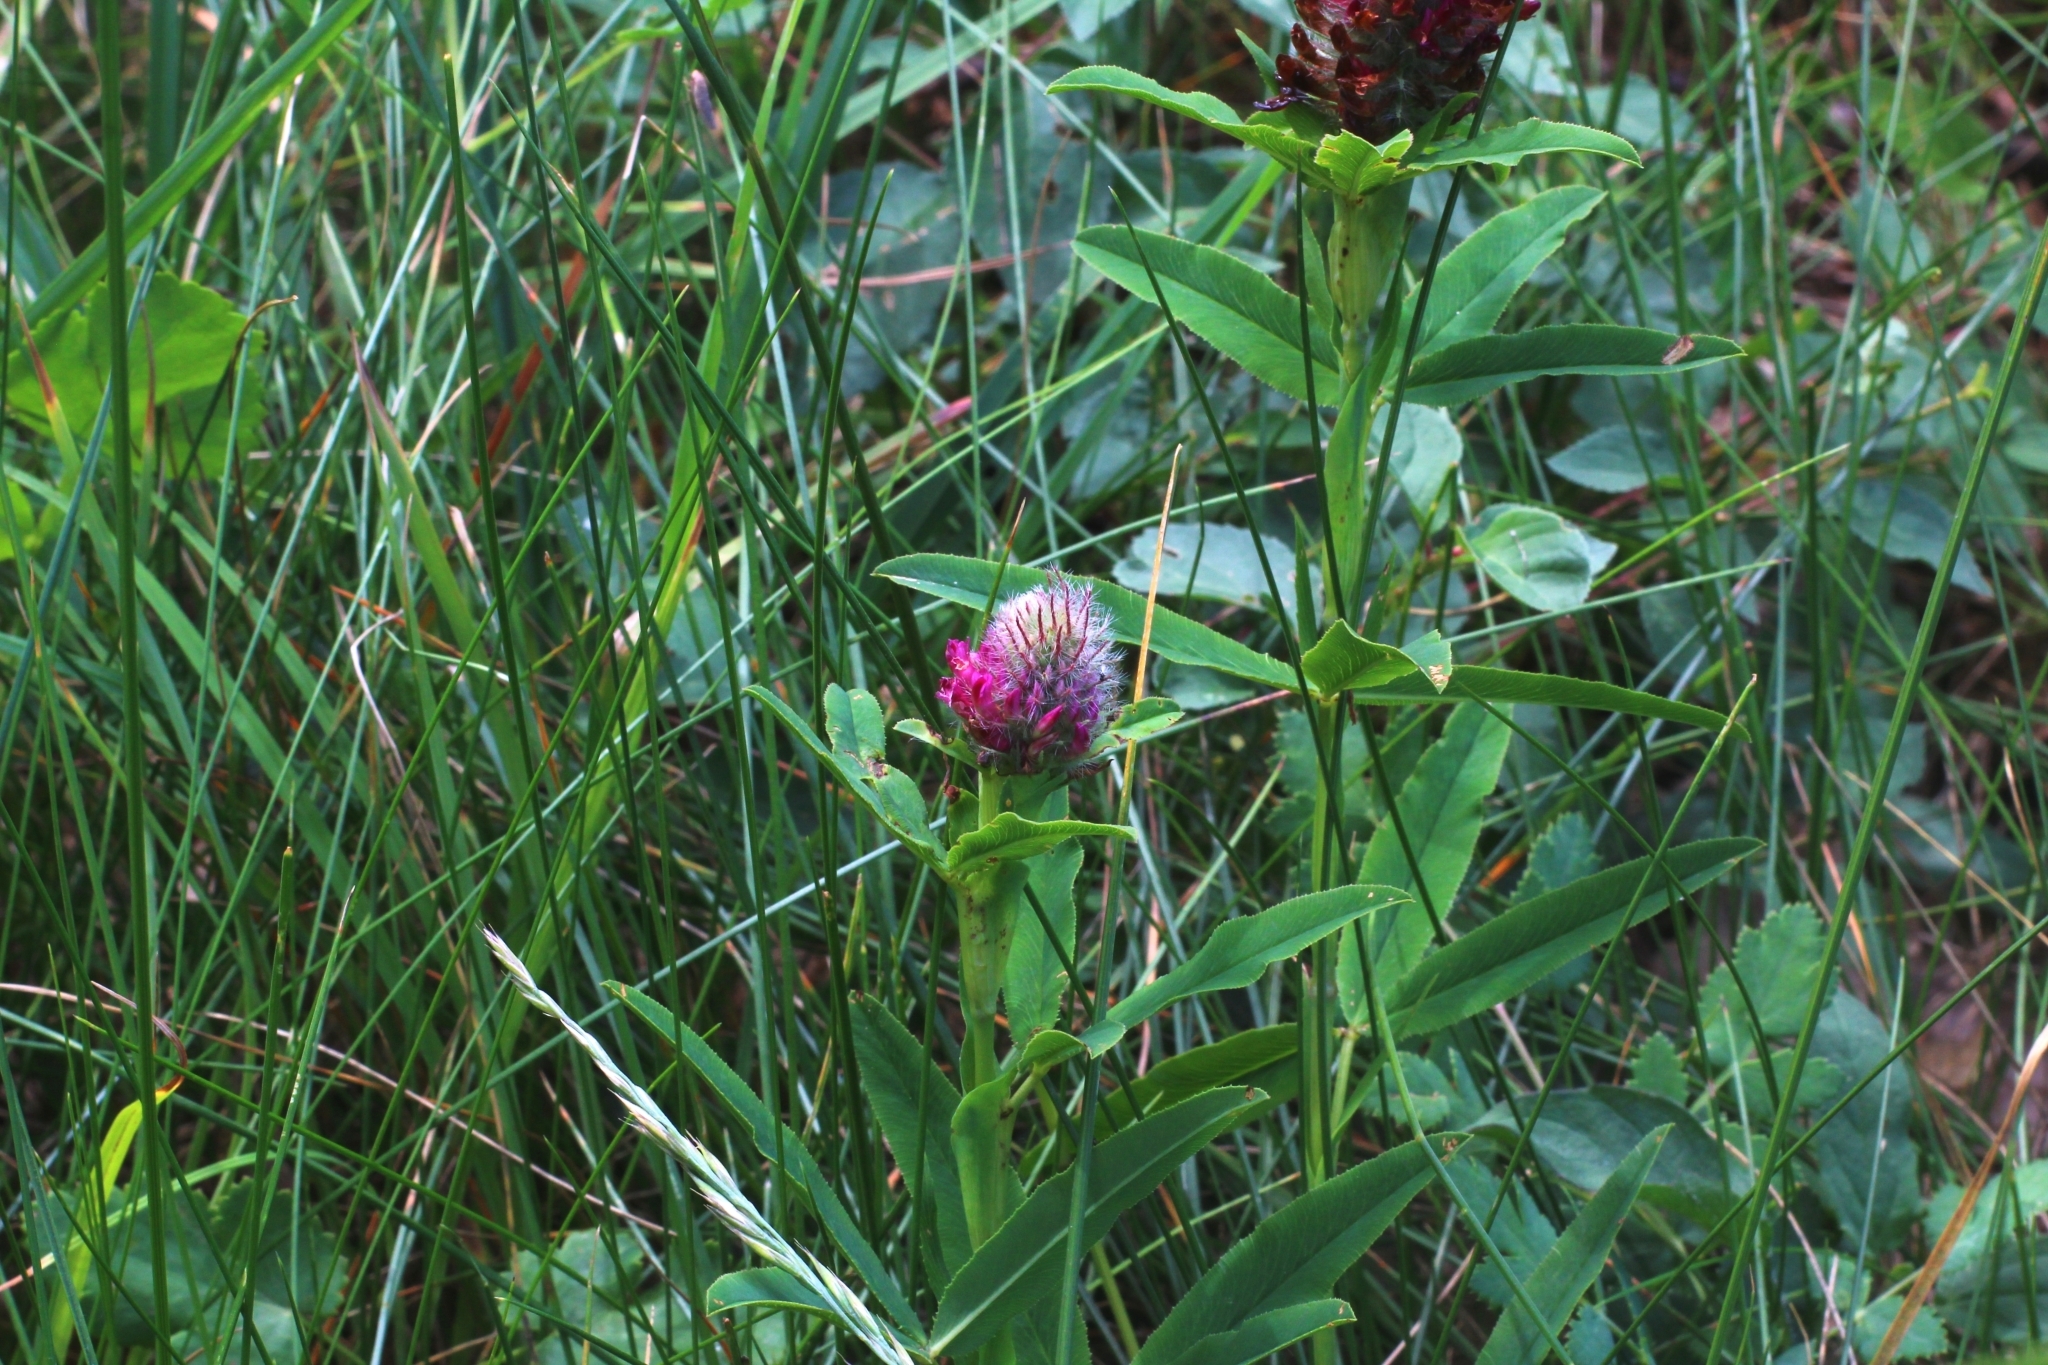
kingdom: Plantae
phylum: Tracheophyta
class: Magnoliopsida
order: Fabales
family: Fabaceae
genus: Trifolium
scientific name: Trifolium rubens
